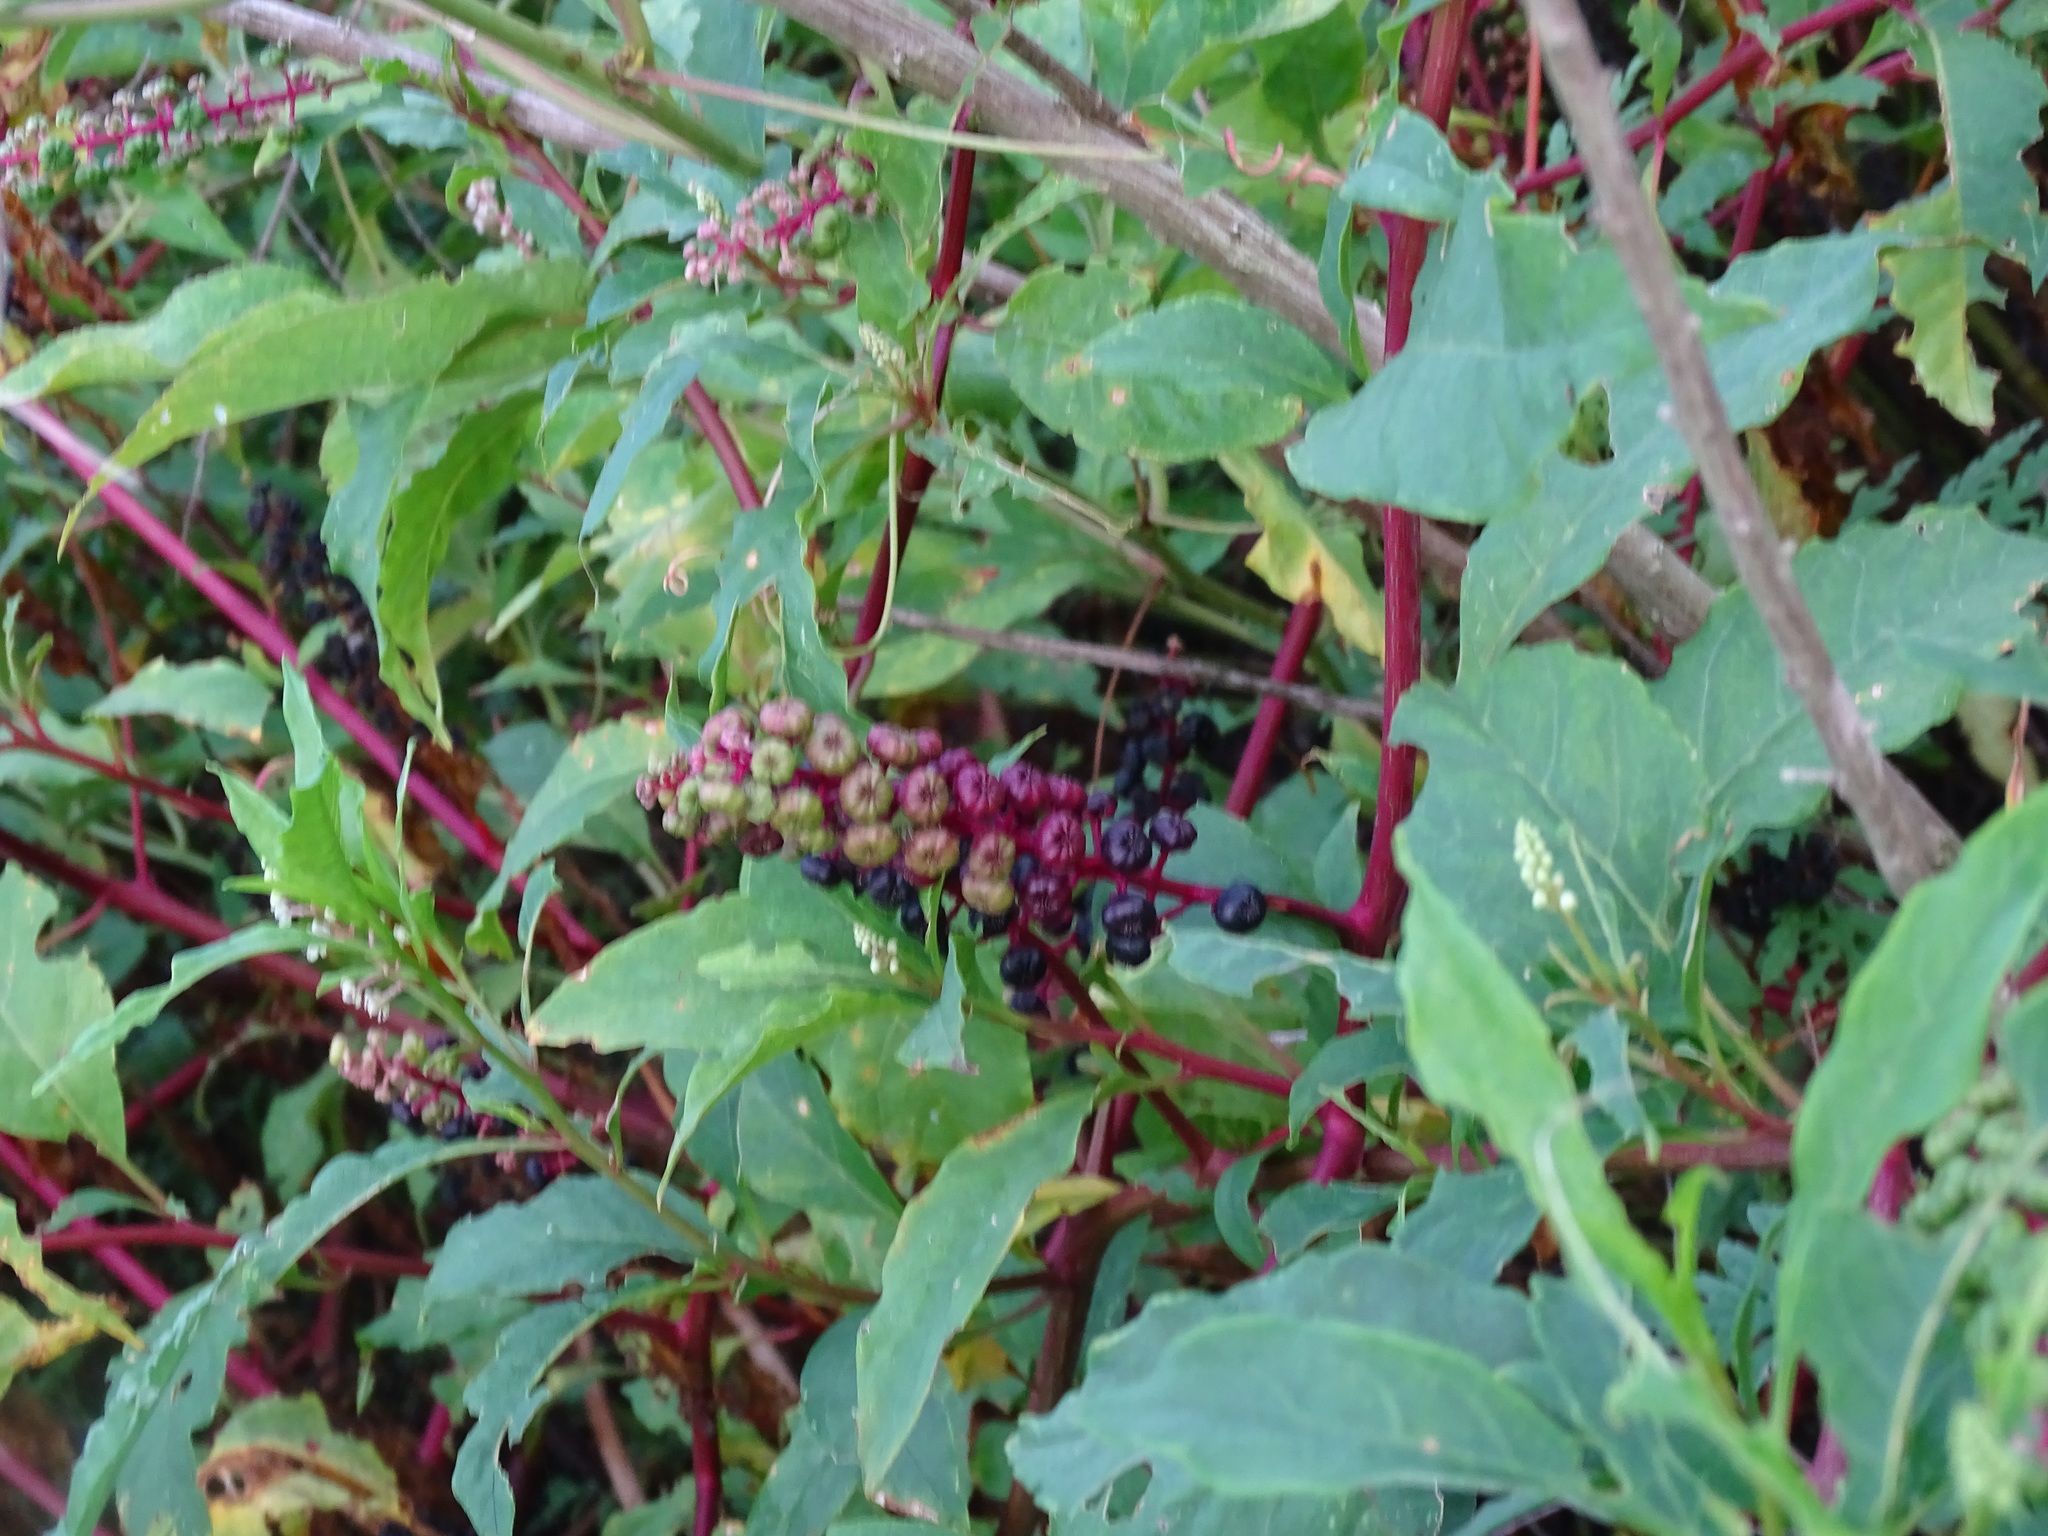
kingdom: Plantae
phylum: Tracheophyta
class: Magnoliopsida
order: Caryophyllales
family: Phytolaccaceae
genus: Phytolacca
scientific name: Phytolacca americana
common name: American pokeweed
